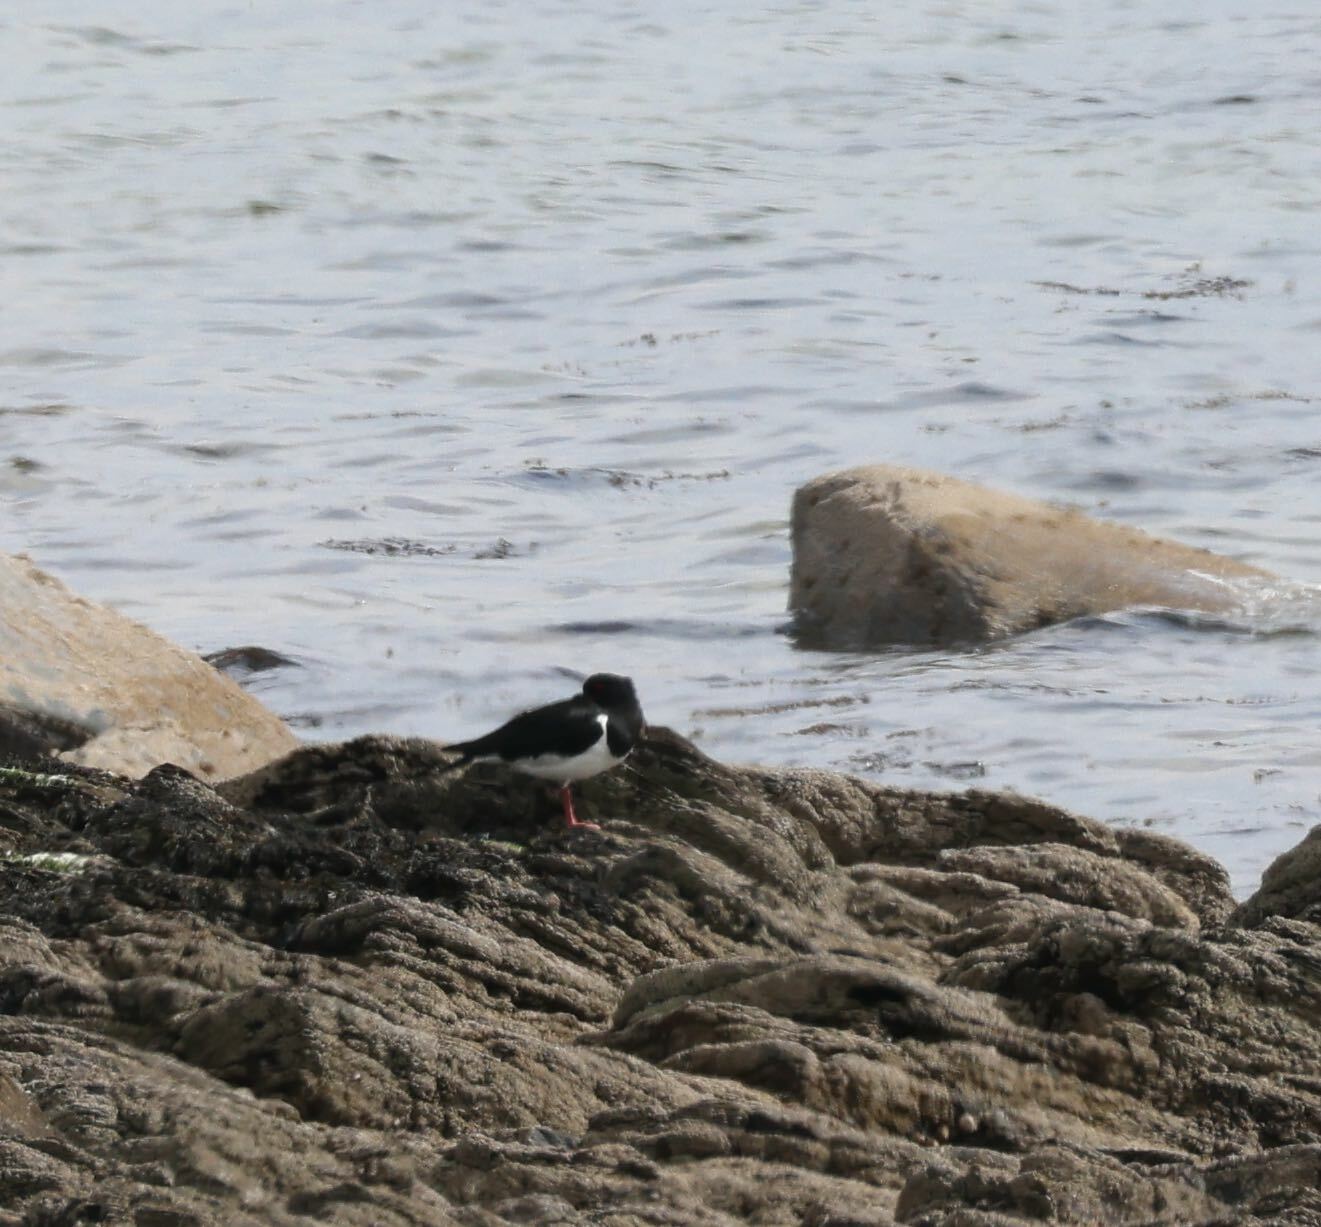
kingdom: Animalia
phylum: Chordata
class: Aves
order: Charadriiformes
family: Haematopodidae
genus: Haematopus
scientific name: Haematopus ostralegus
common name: Eurasian oystercatcher
